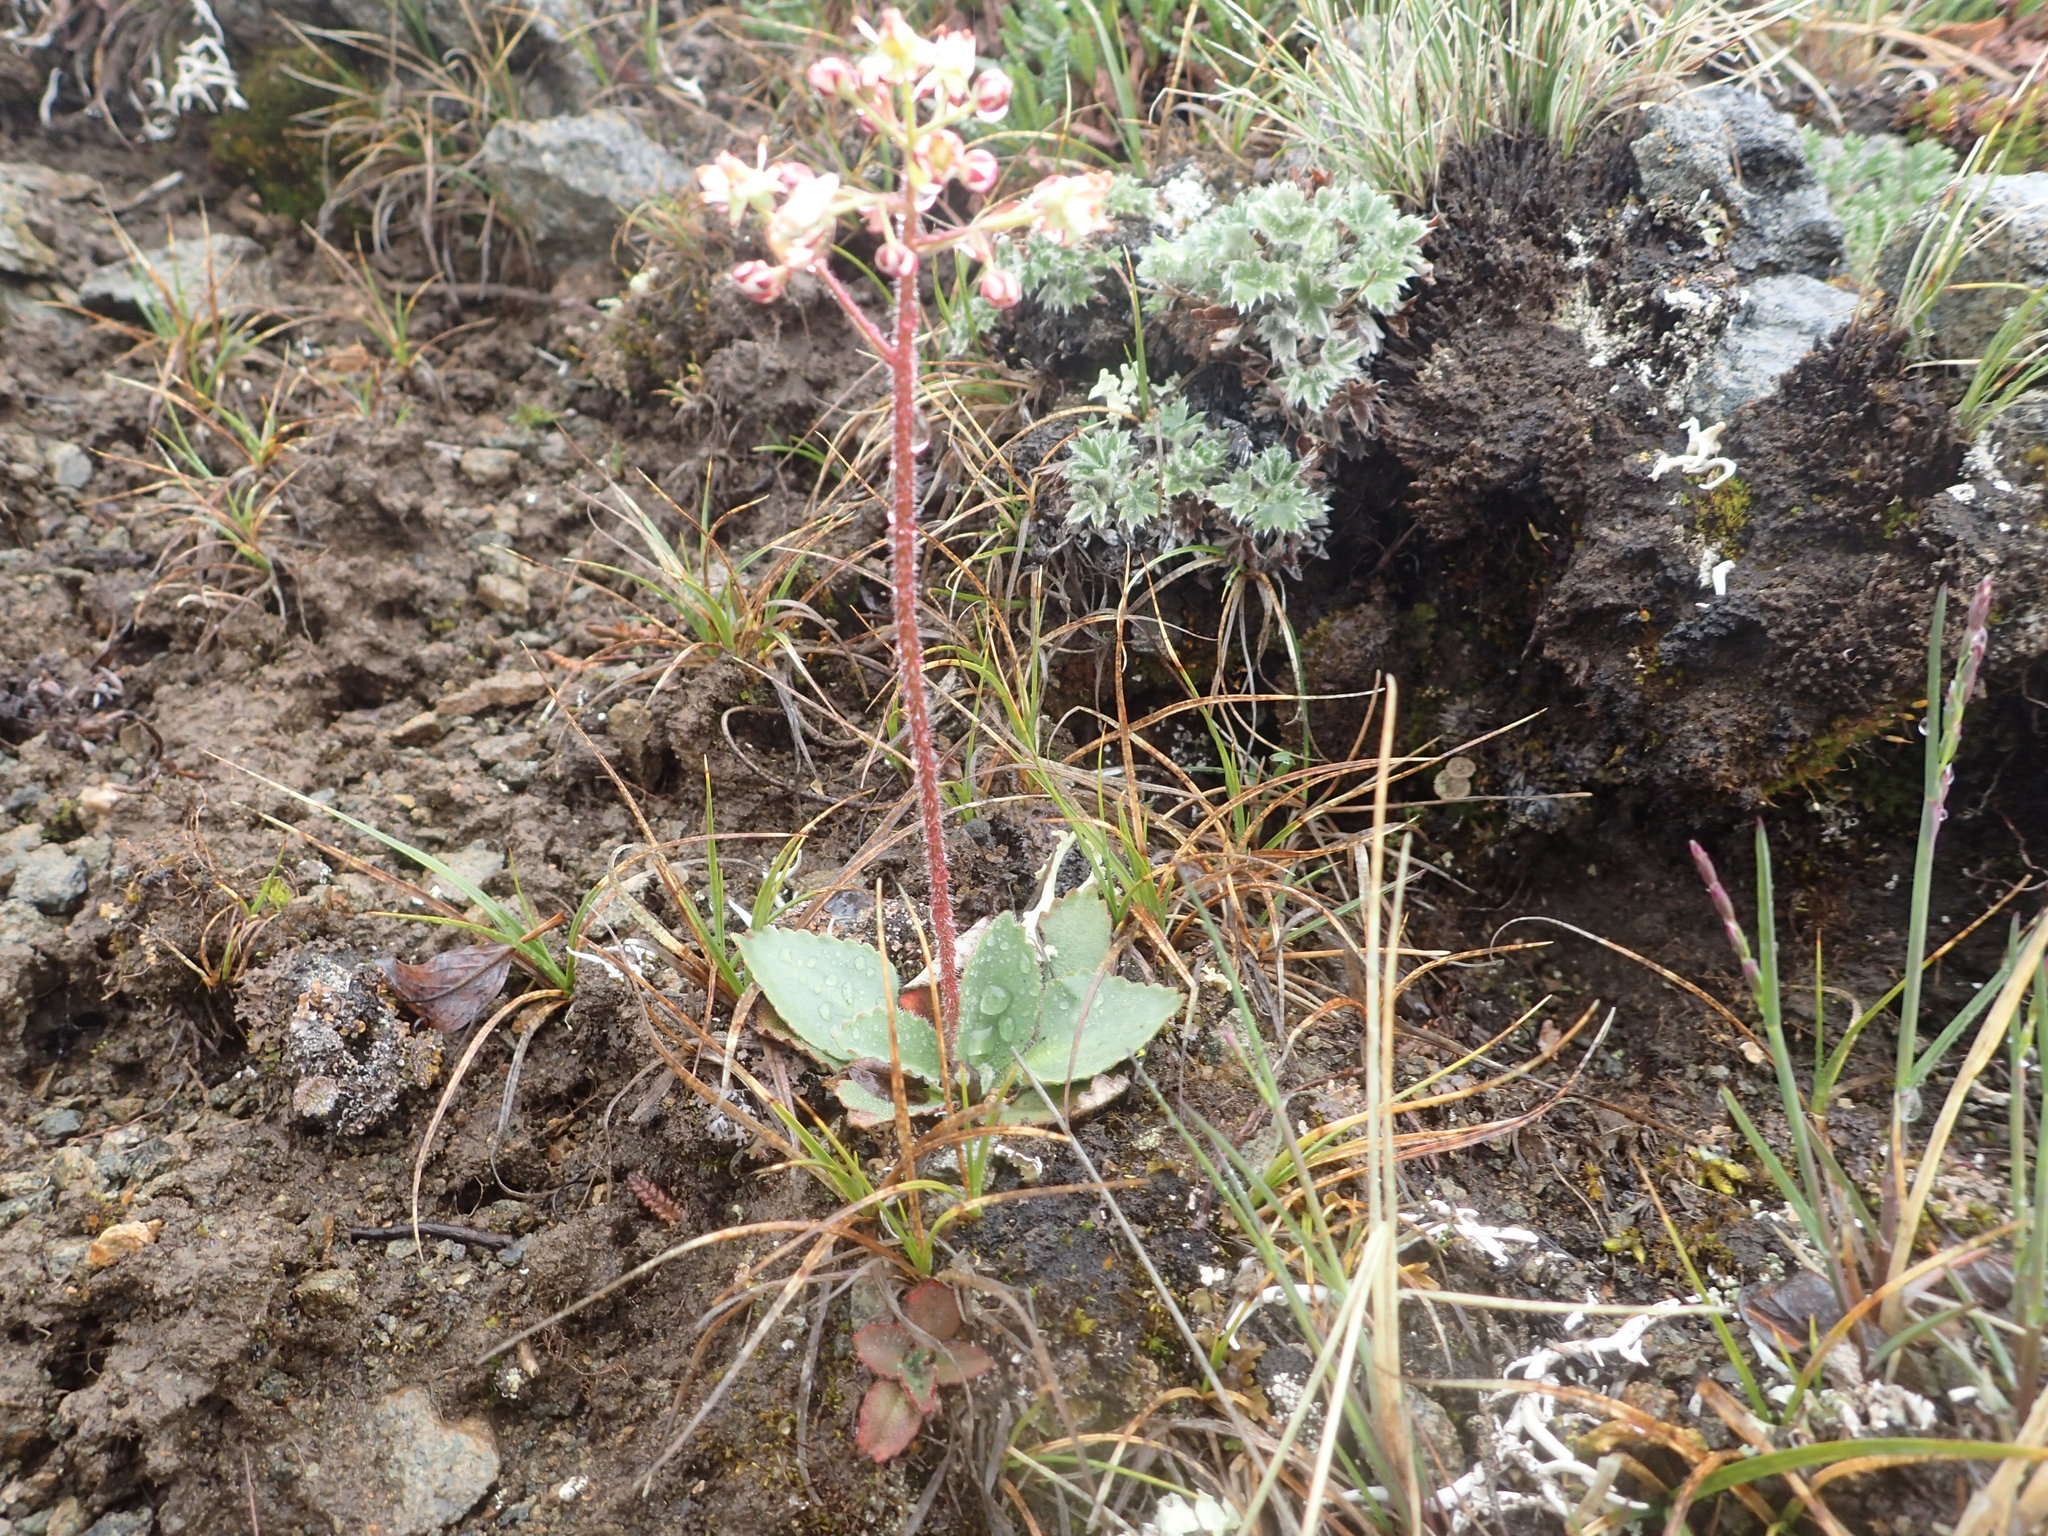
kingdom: Plantae
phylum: Tracheophyta
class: Magnoliopsida
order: Saxifragales
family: Saxifragaceae
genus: Micranthes
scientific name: Micranthes reflexa
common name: Reflexed saxifrage
